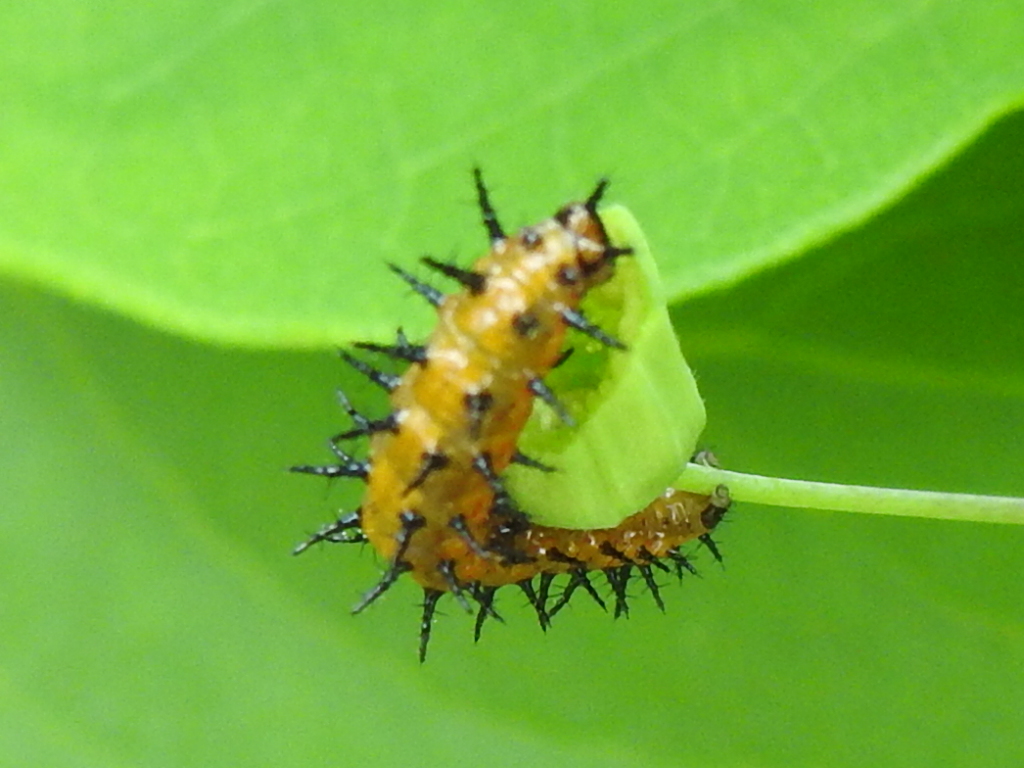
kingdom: Animalia
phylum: Arthropoda
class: Insecta
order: Lepidoptera
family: Nymphalidae
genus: Dione
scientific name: Dione vanillae
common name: Gulf fritillary
